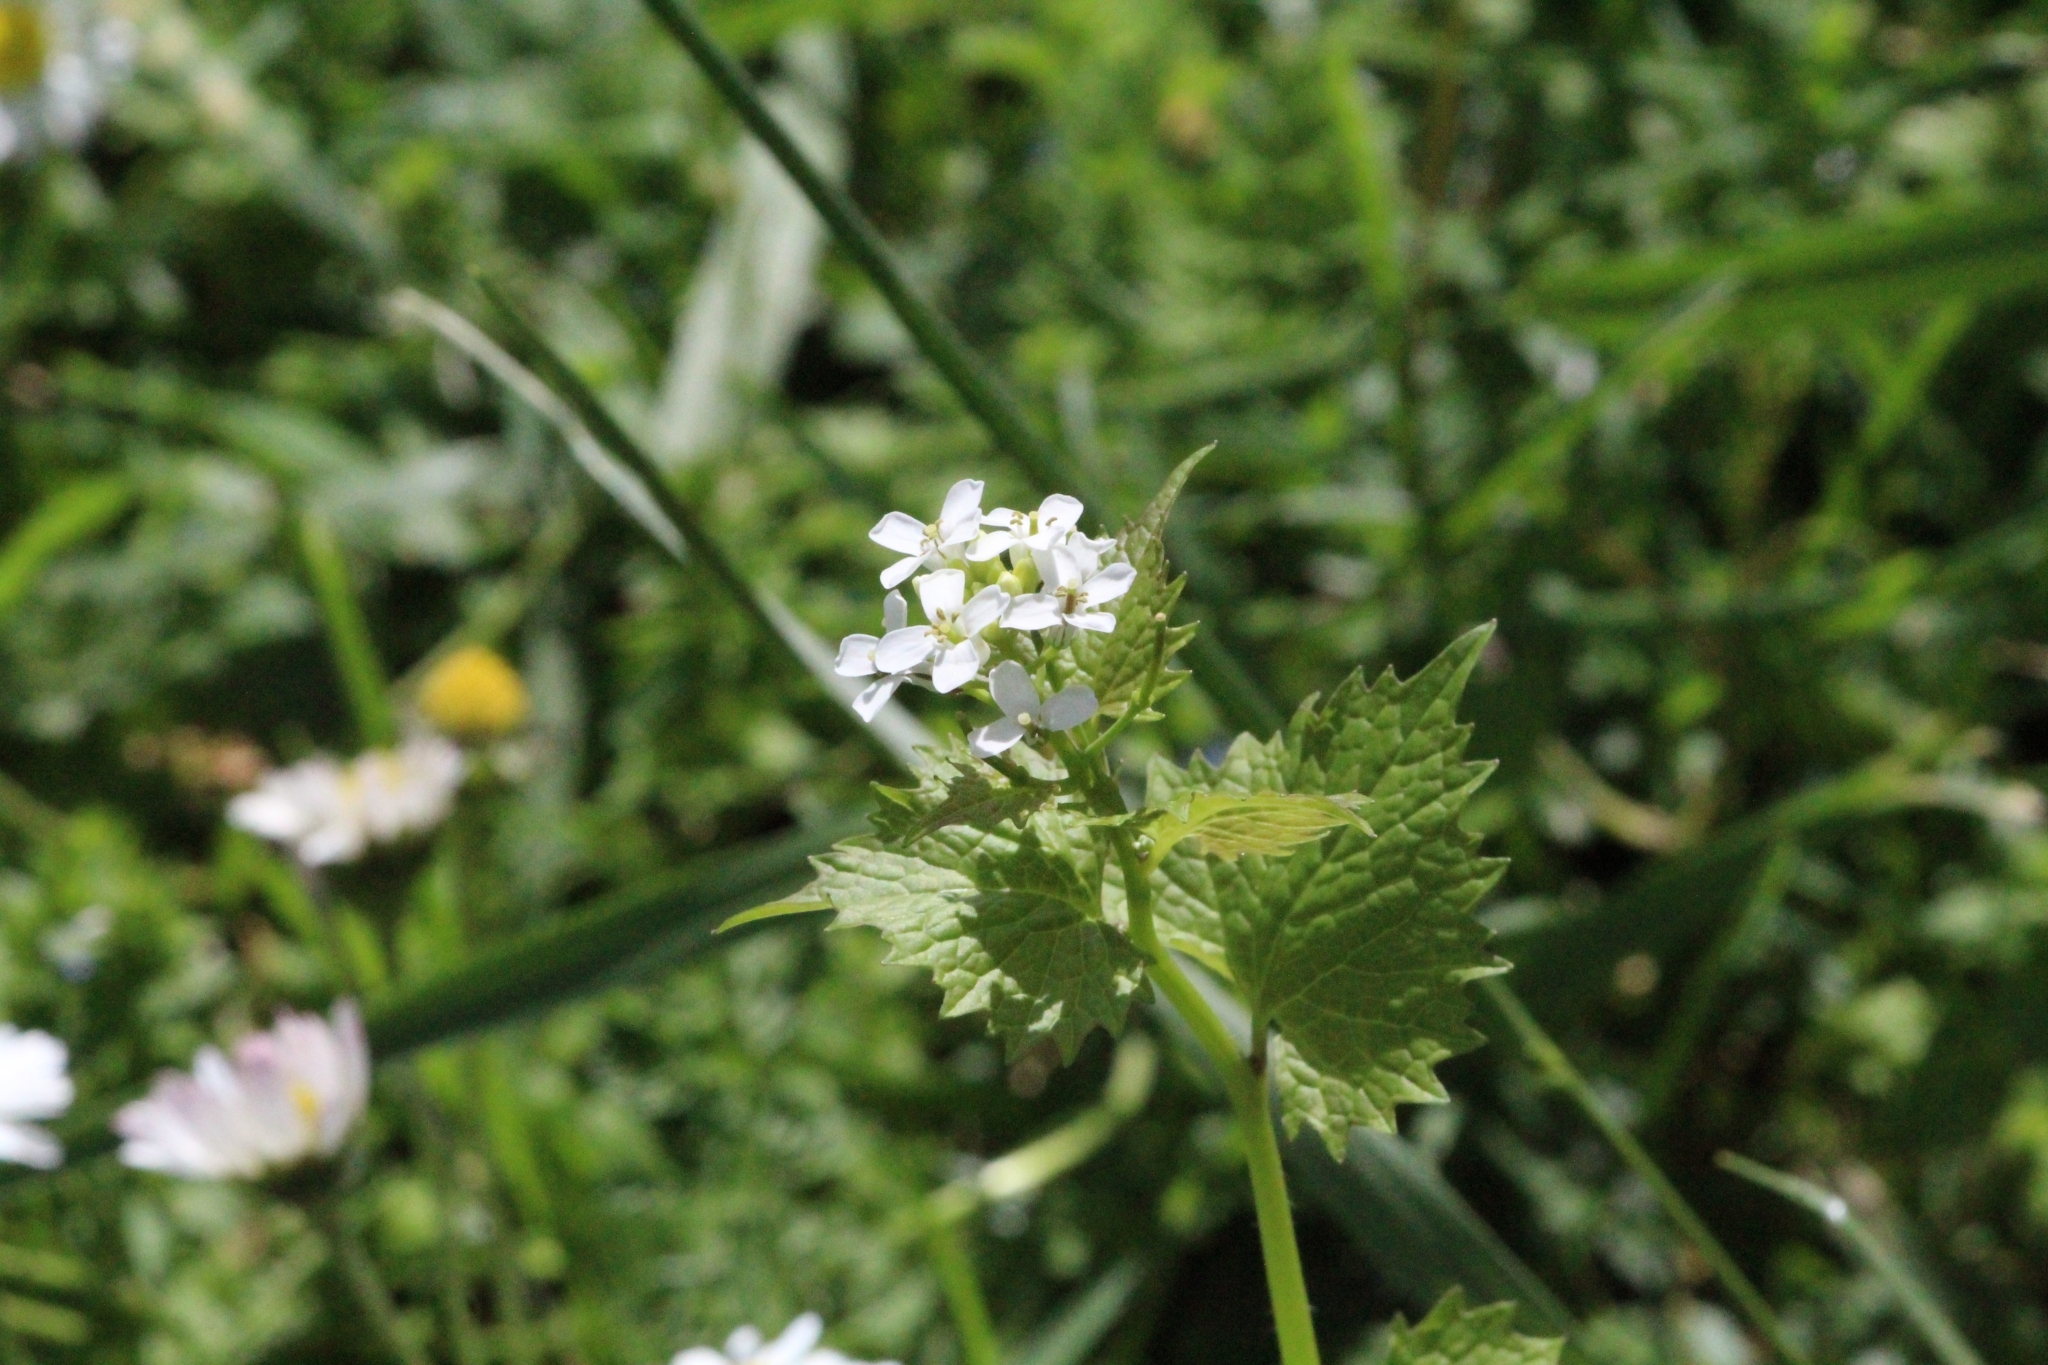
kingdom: Plantae
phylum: Tracheophyta
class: Magnoliopsida
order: Brassicales
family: Brassicaceae
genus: Alliaria
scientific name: Alliaria petiolata
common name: Garlic mustard
